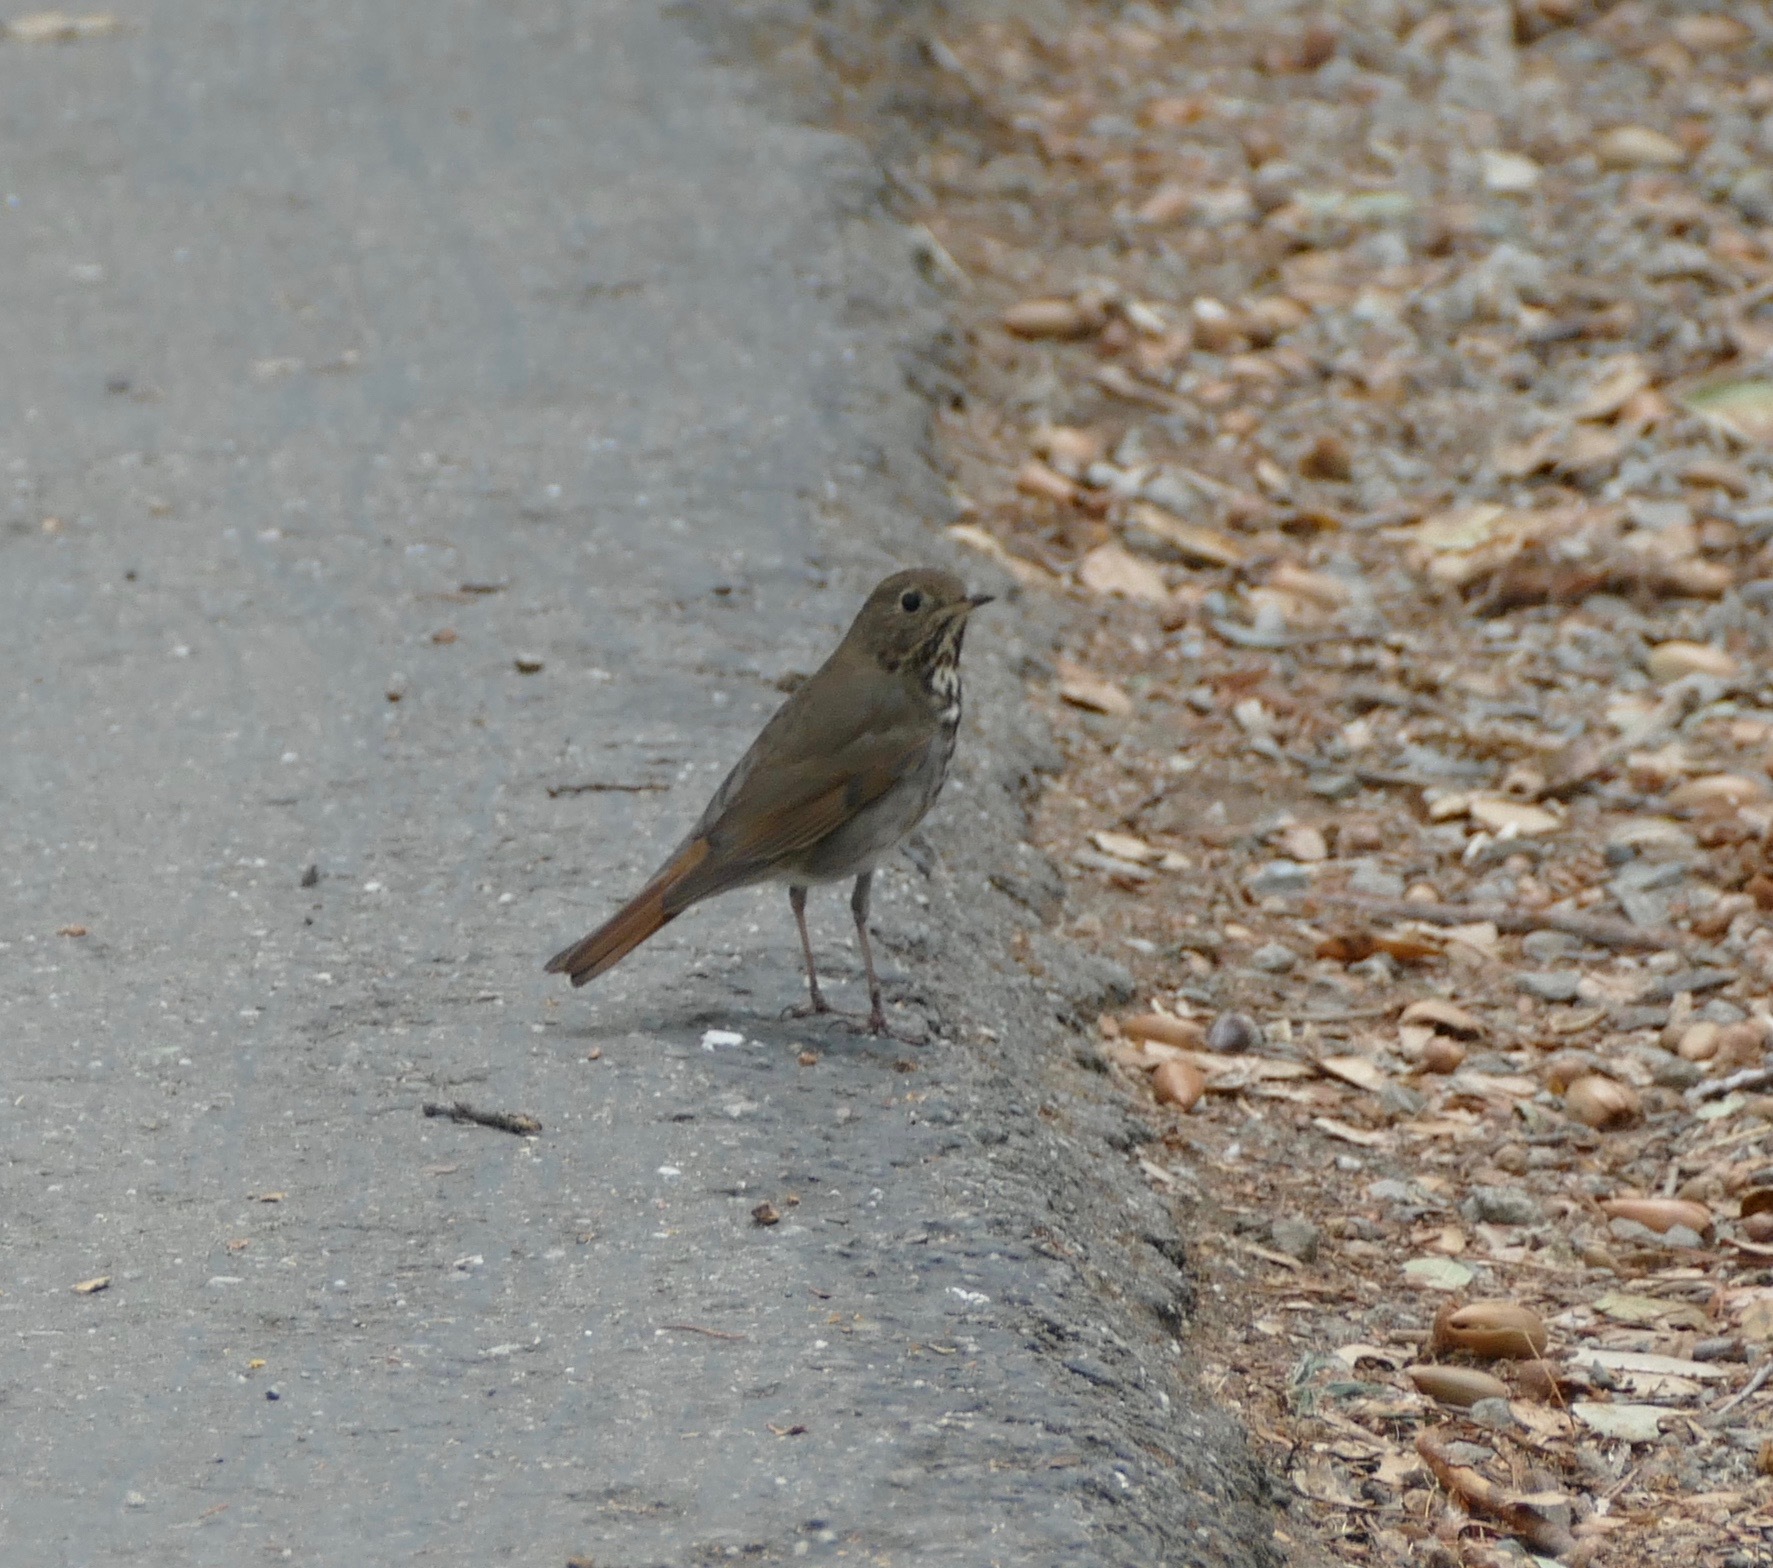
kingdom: Animalia
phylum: Chordata
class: Aves
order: Passeriformes
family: Turdidae
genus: Catharus
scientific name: Catharus guttatus
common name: Hermit thrush
